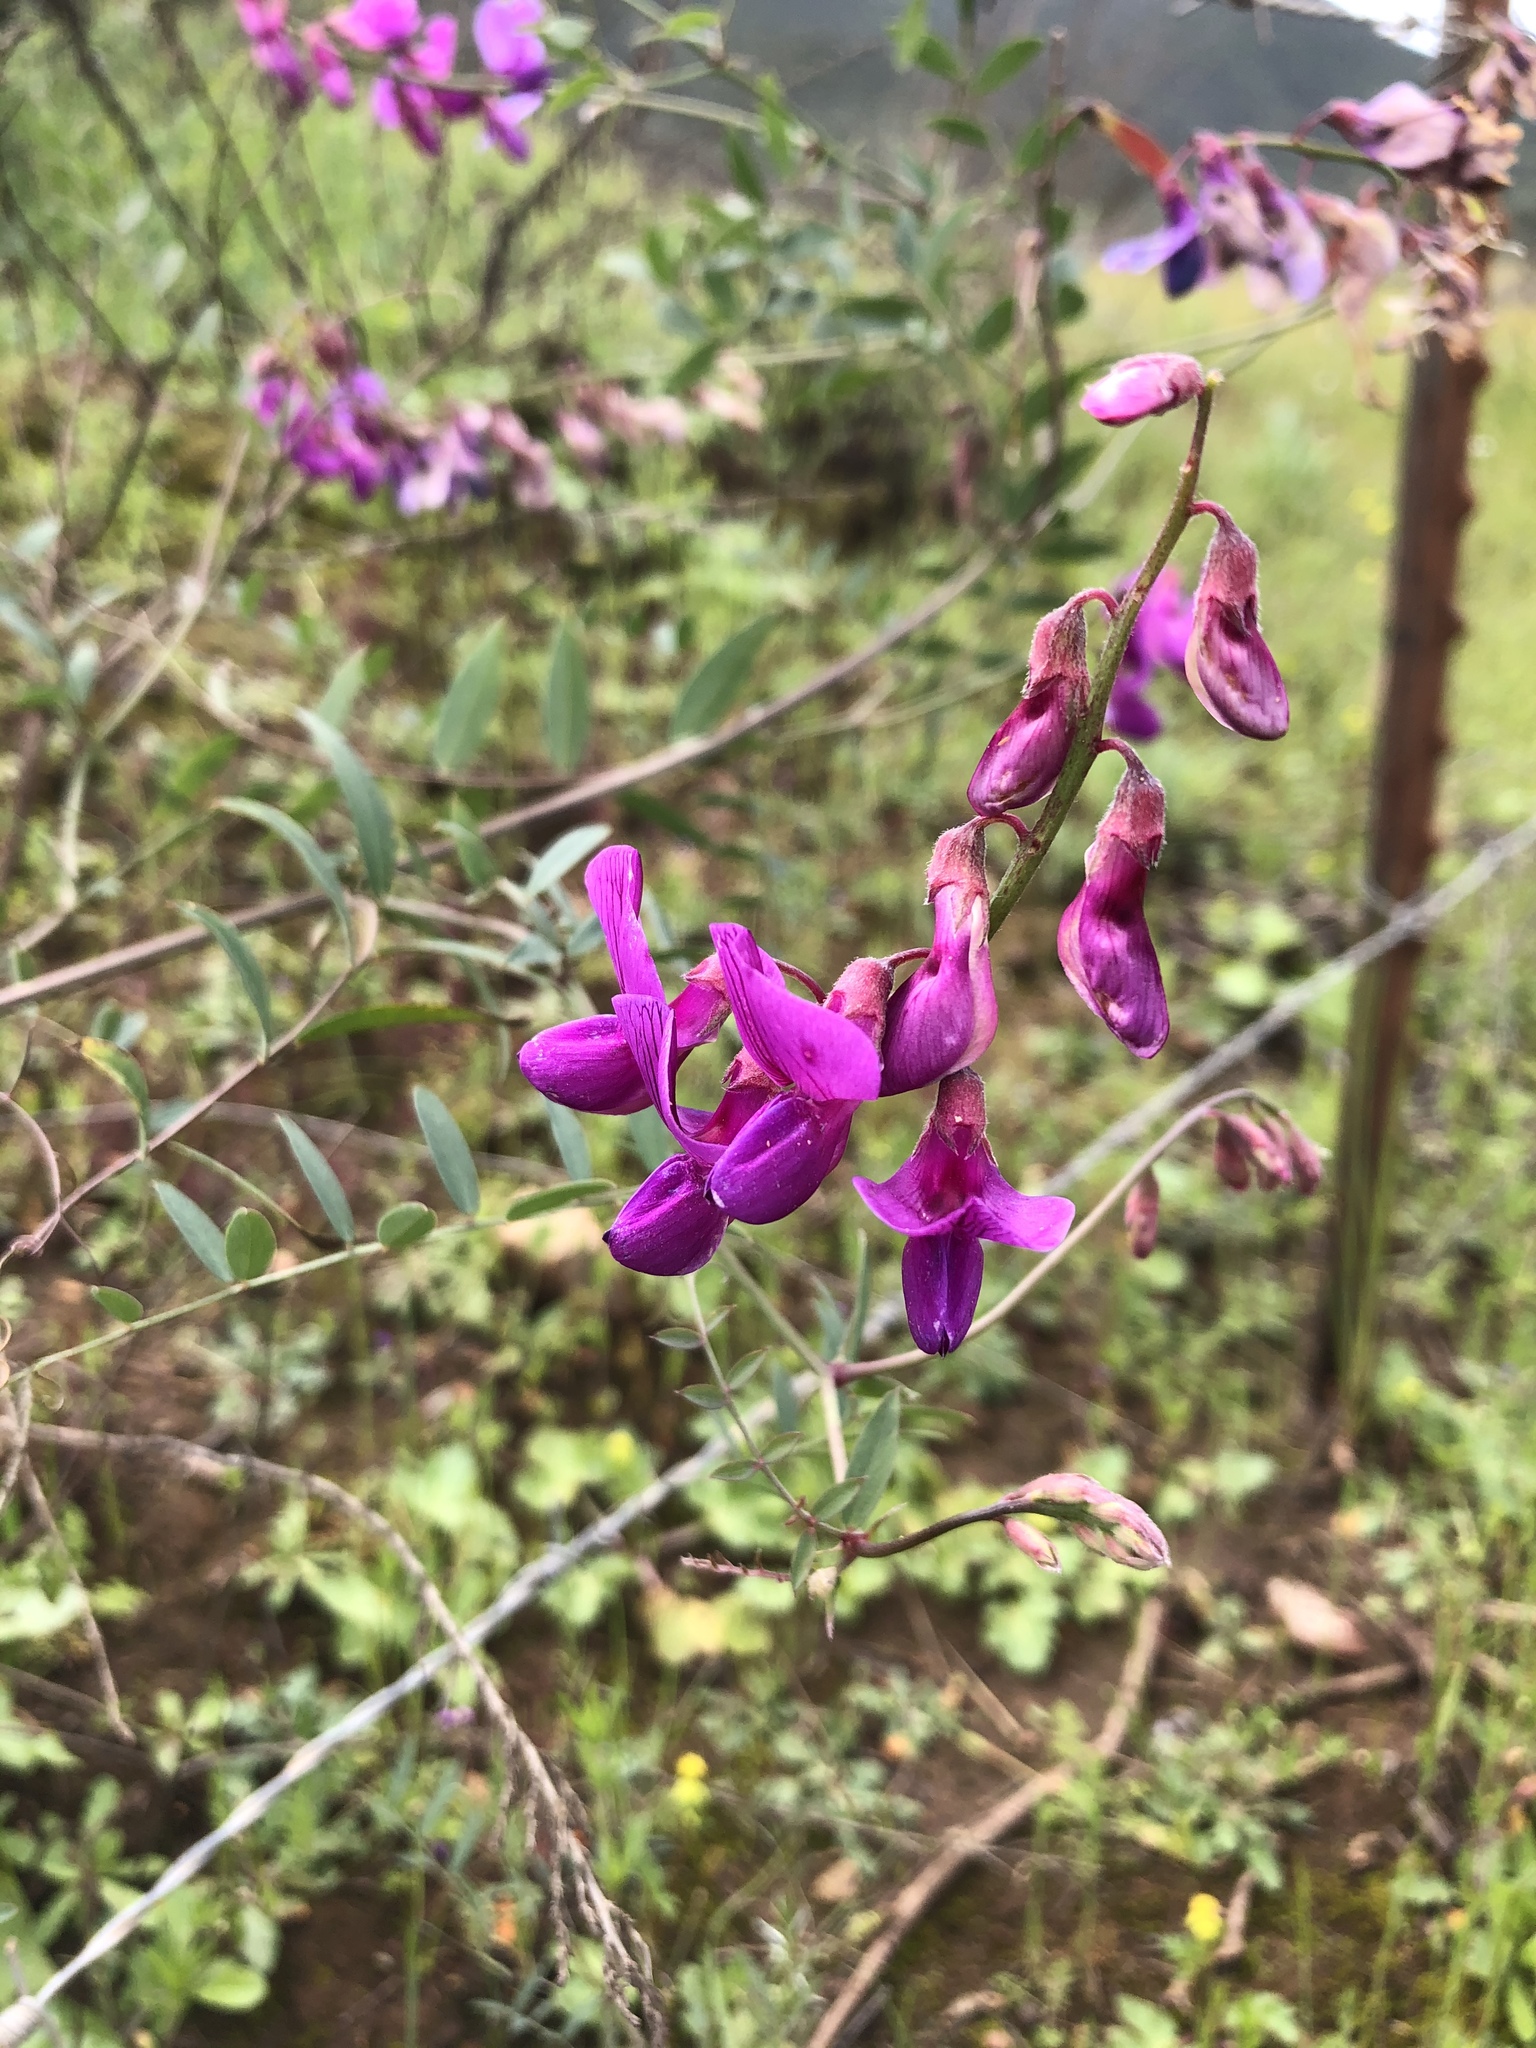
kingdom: Plantae
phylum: Tracheophyta
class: Magnoliopsida
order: Fabales
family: Fabaceae
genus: Lathyrus
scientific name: Lathyrus vestitus
